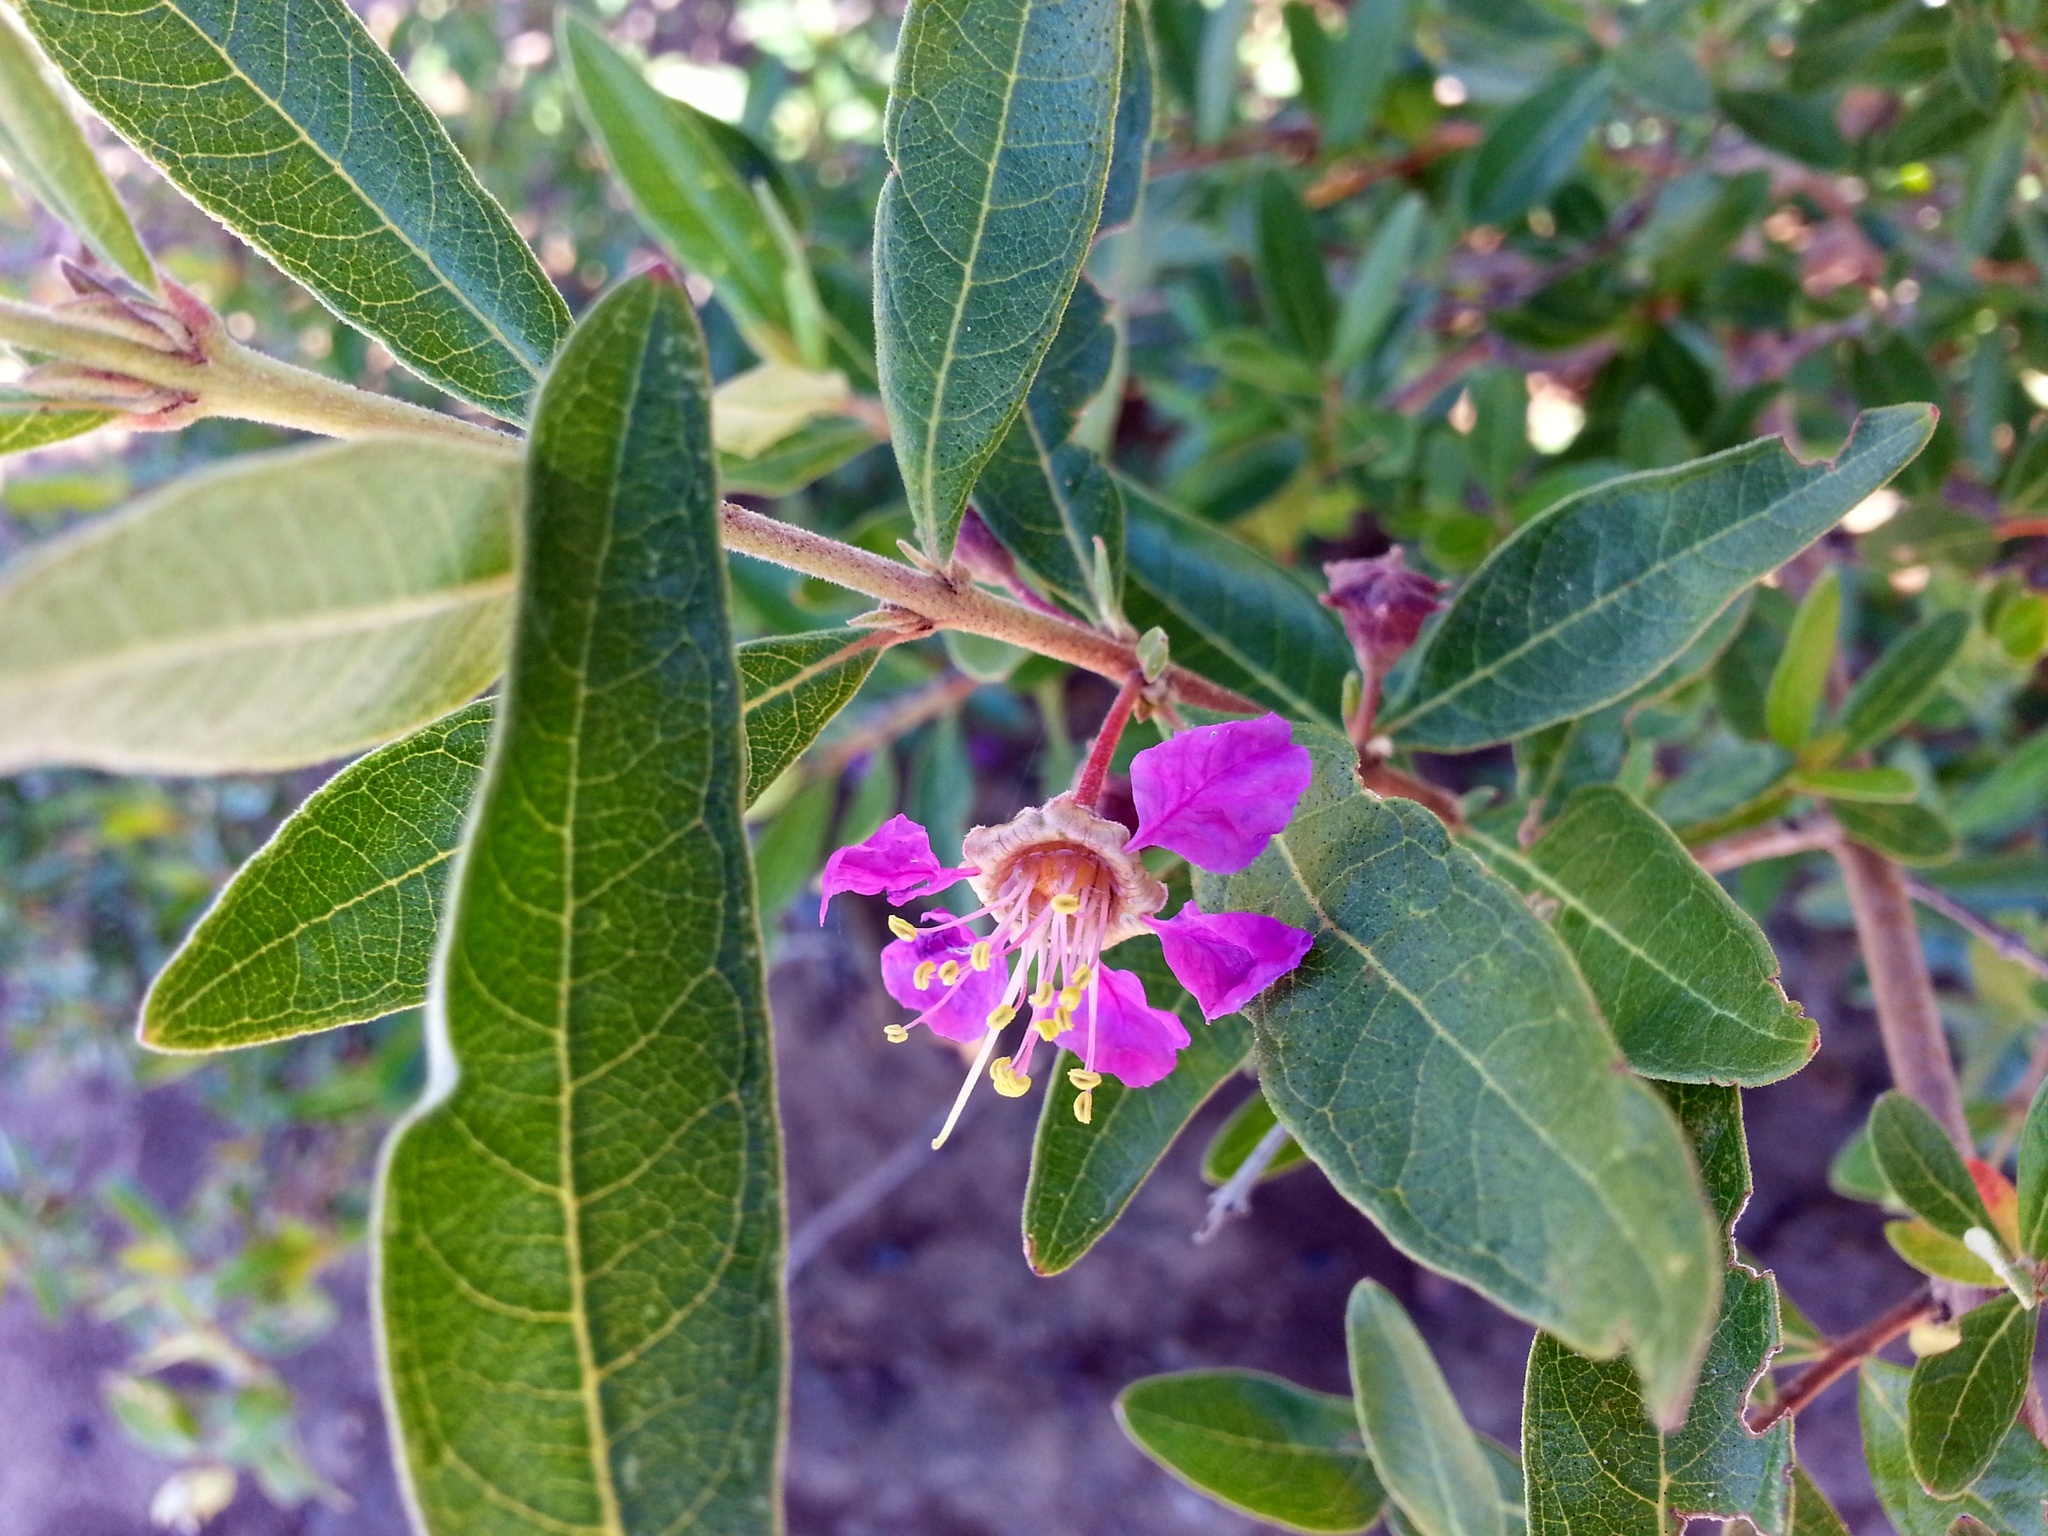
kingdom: Plantae
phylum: Tracheophyta
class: Magnoliopsida
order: Myrtales
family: Lythraceae
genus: Koehneria
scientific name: Koehneria madagascariensis
